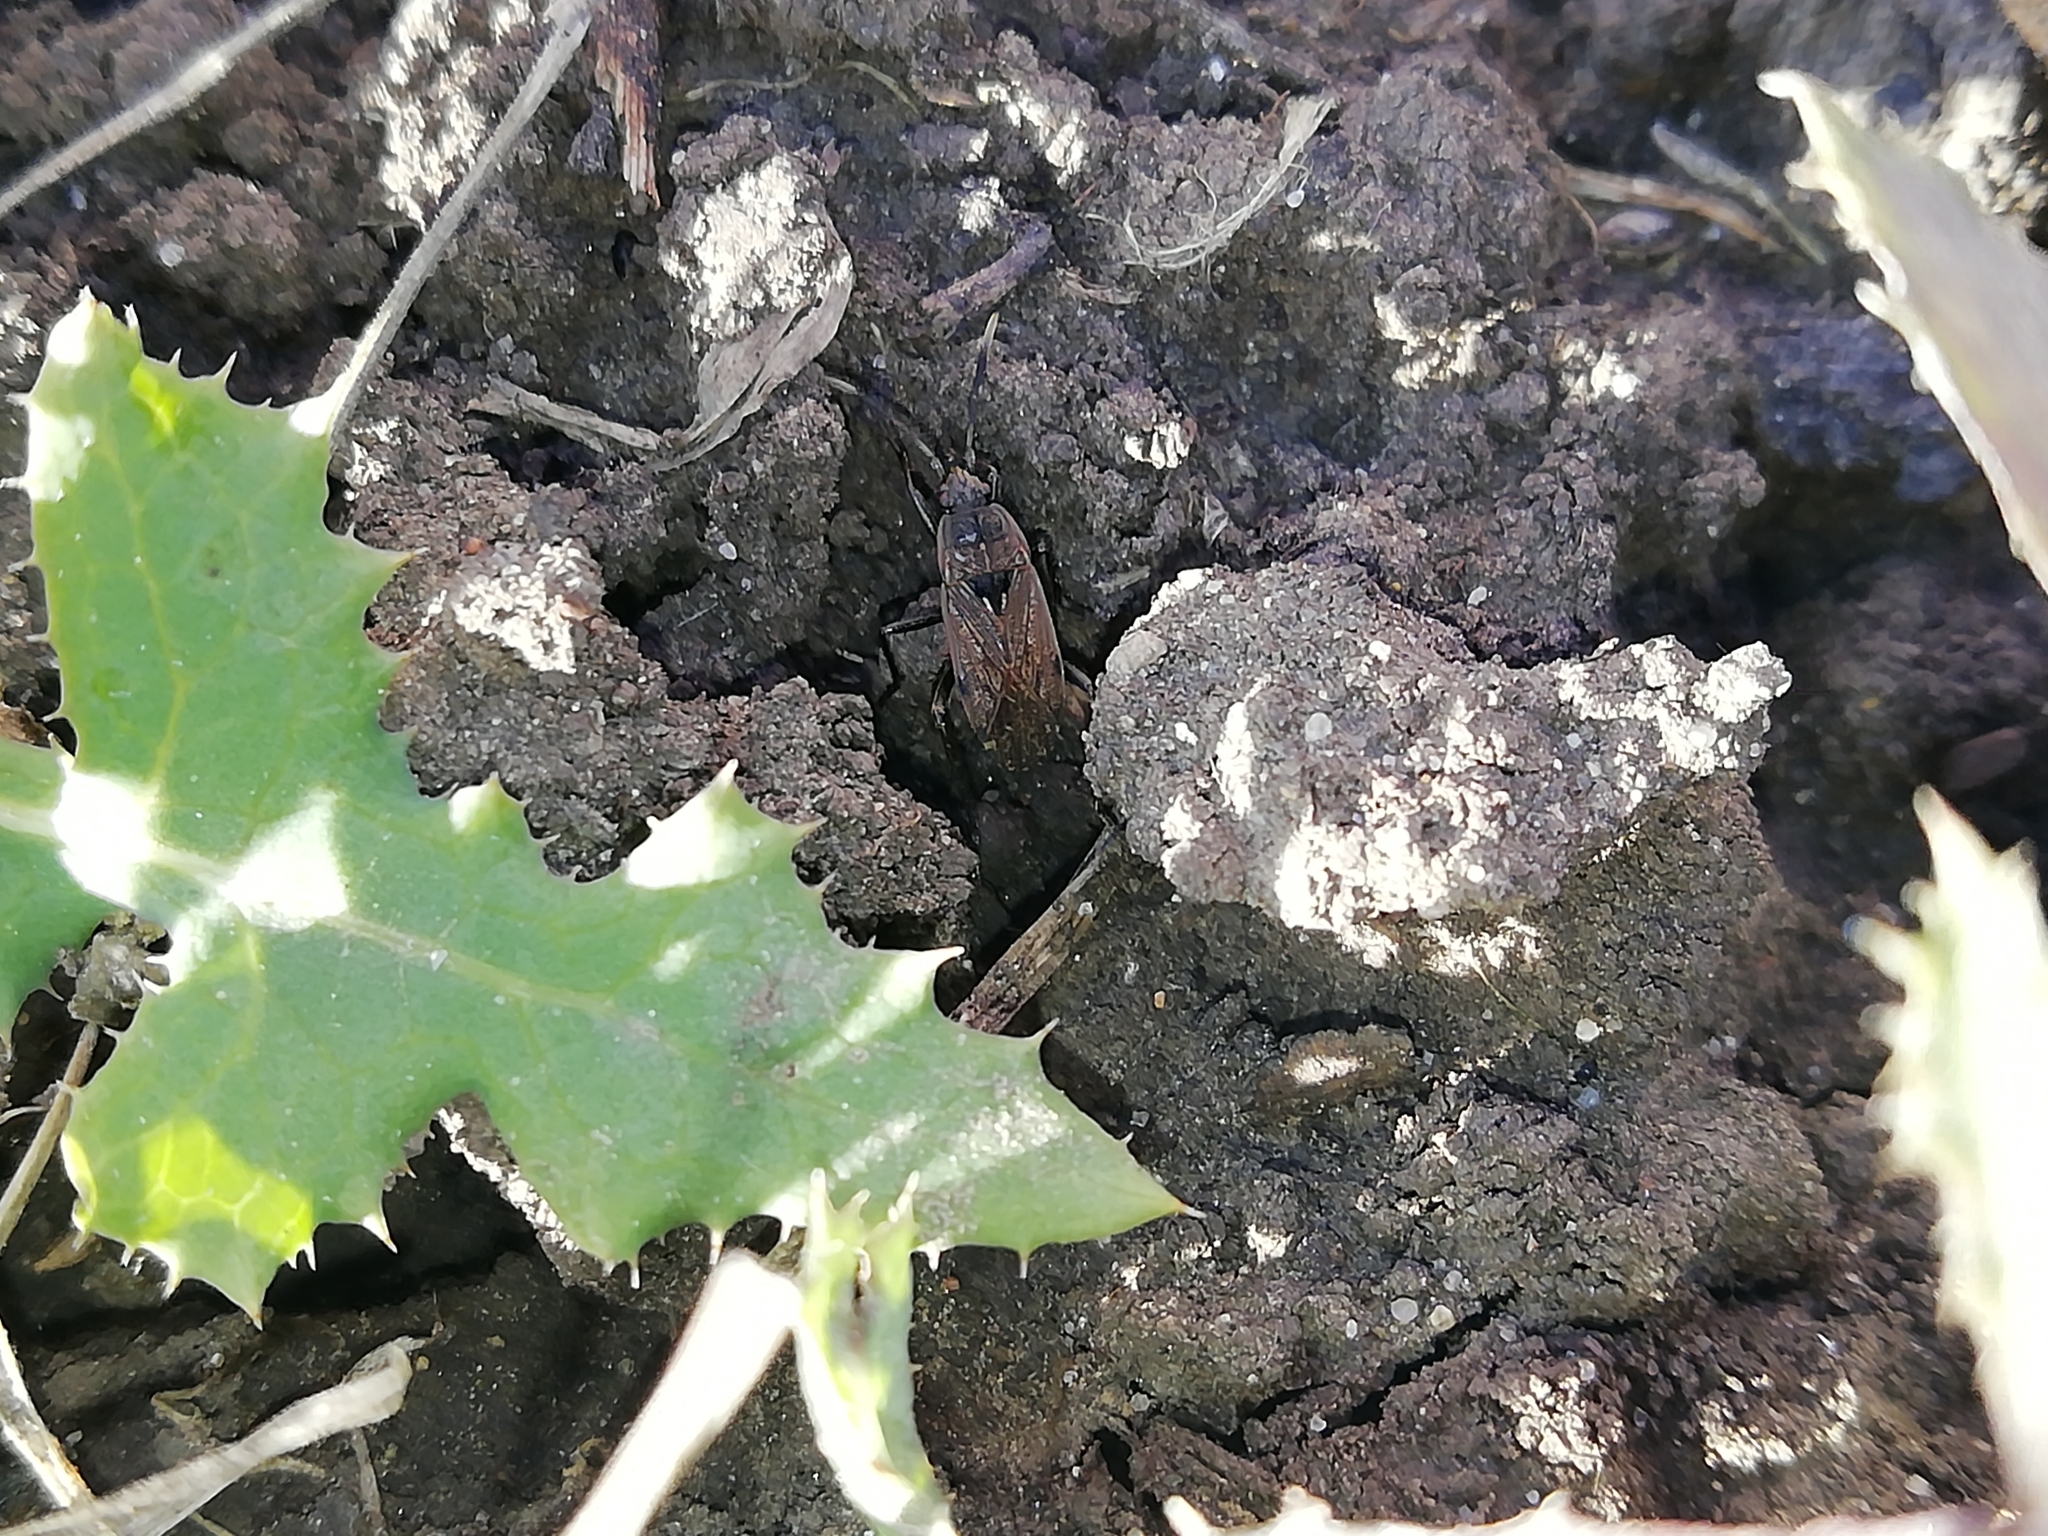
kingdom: Animalia
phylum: Arthropoda
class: Insecta
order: Hemiptera
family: Rhyparochromidae
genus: Panaorus
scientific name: Panaorus adspersus
